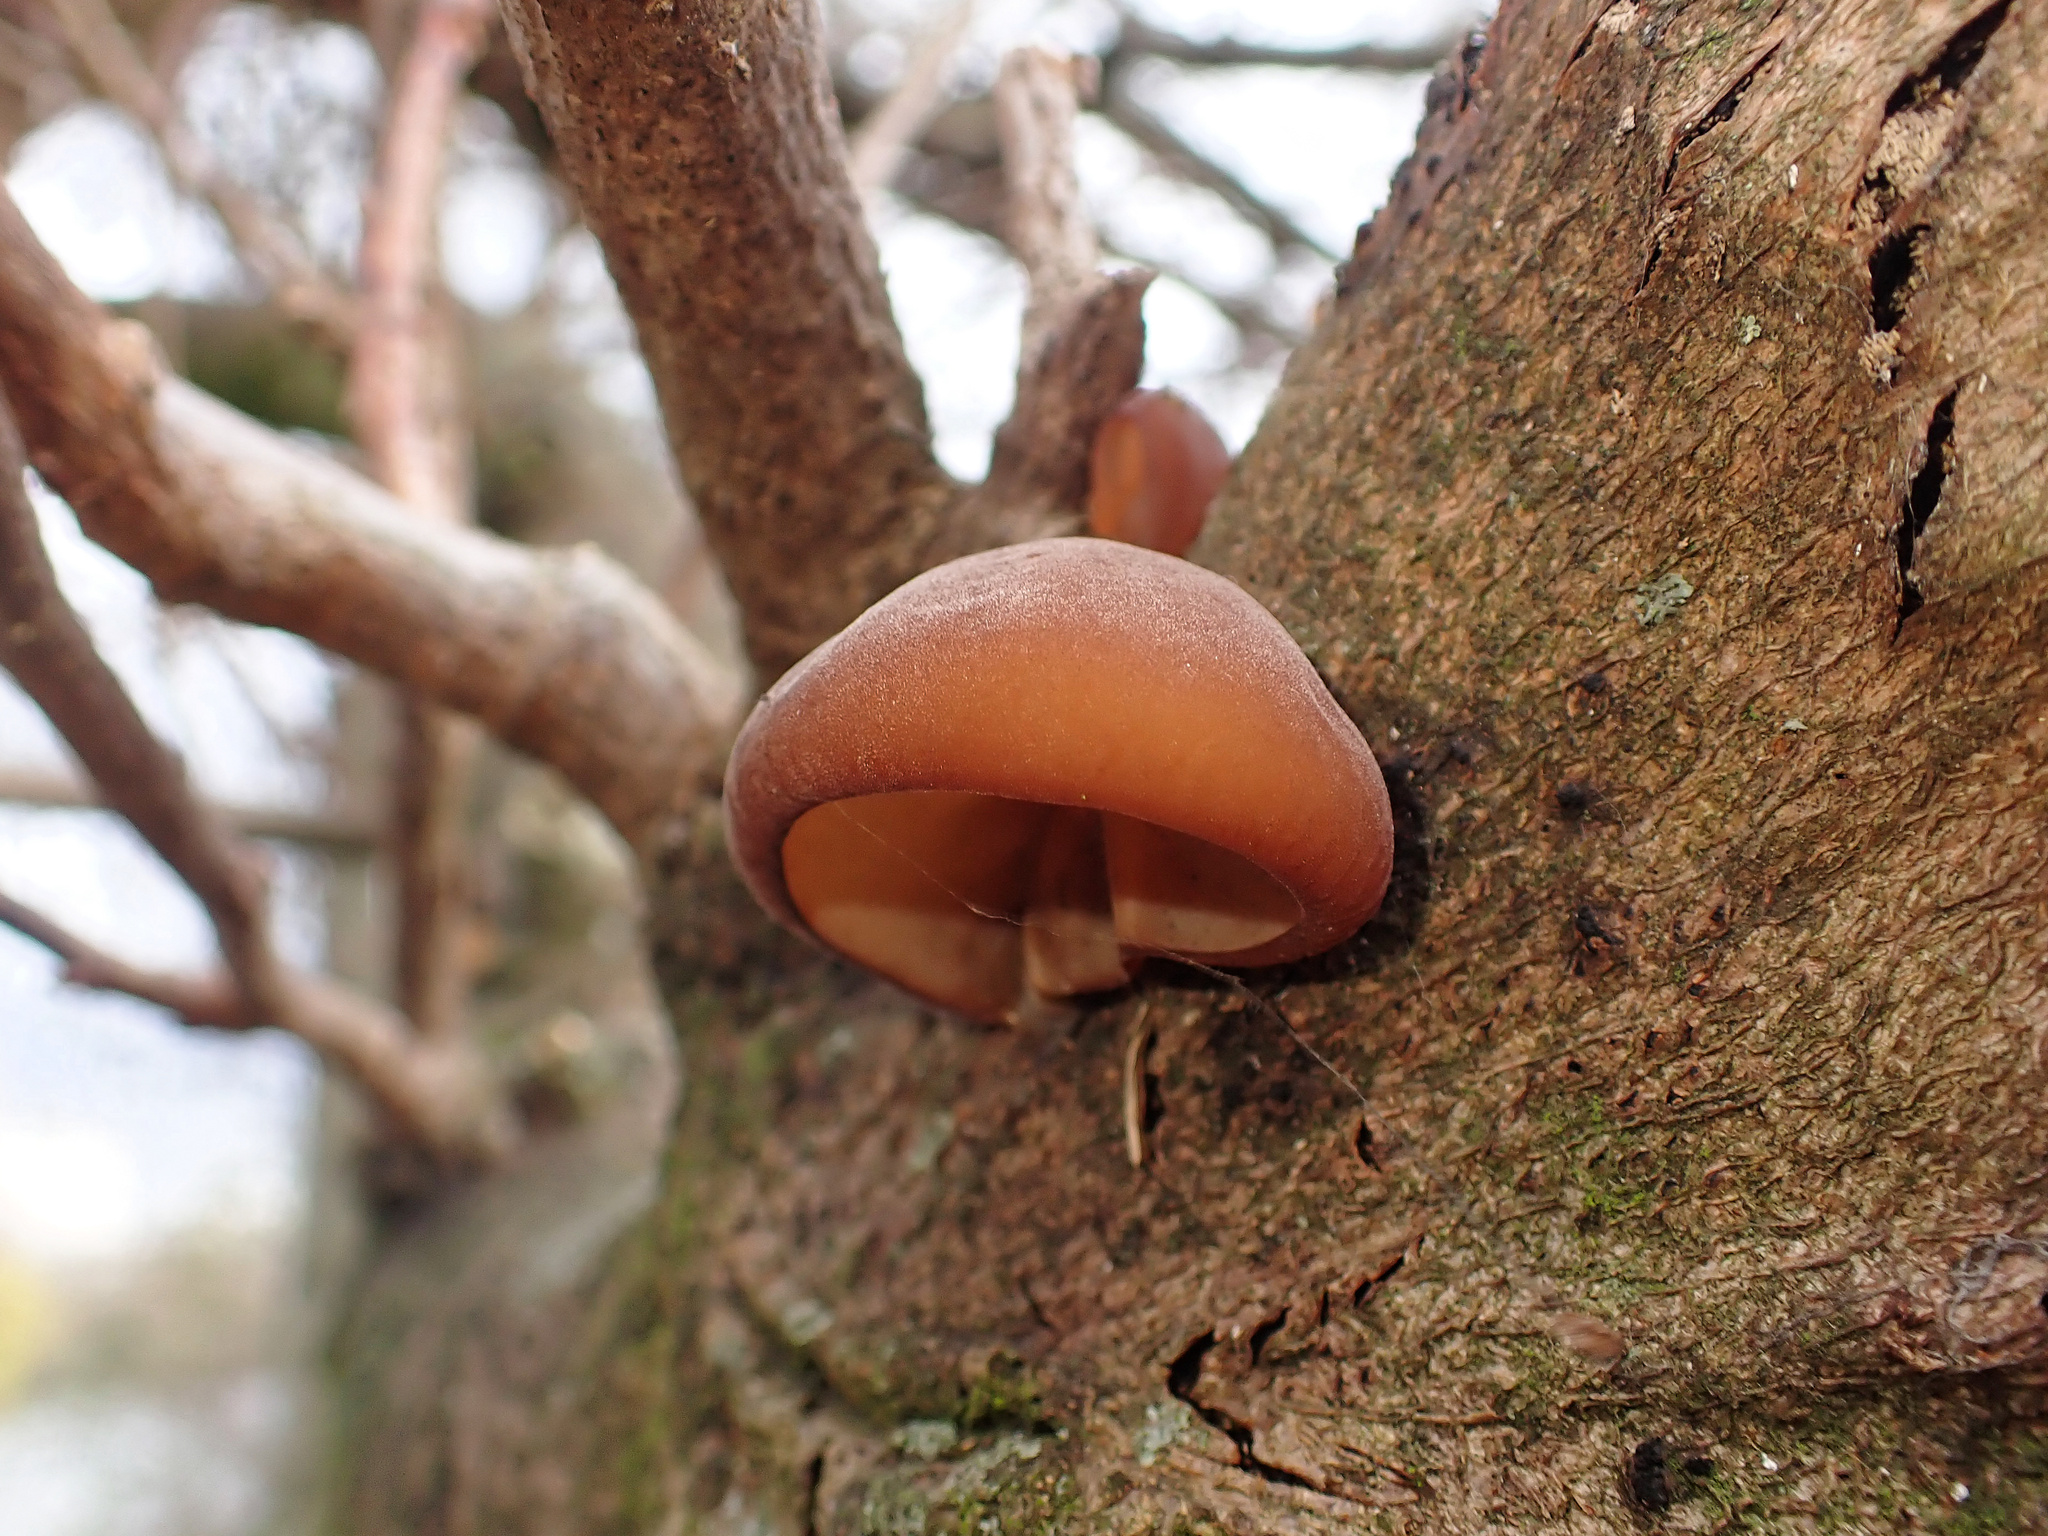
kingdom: Fungi
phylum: Basidiomycota
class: Agaricomycetes
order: Auriculariales
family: Auriculariaceae
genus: Auricularia
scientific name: Auricularia auricula-judae
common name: Jelly ear
